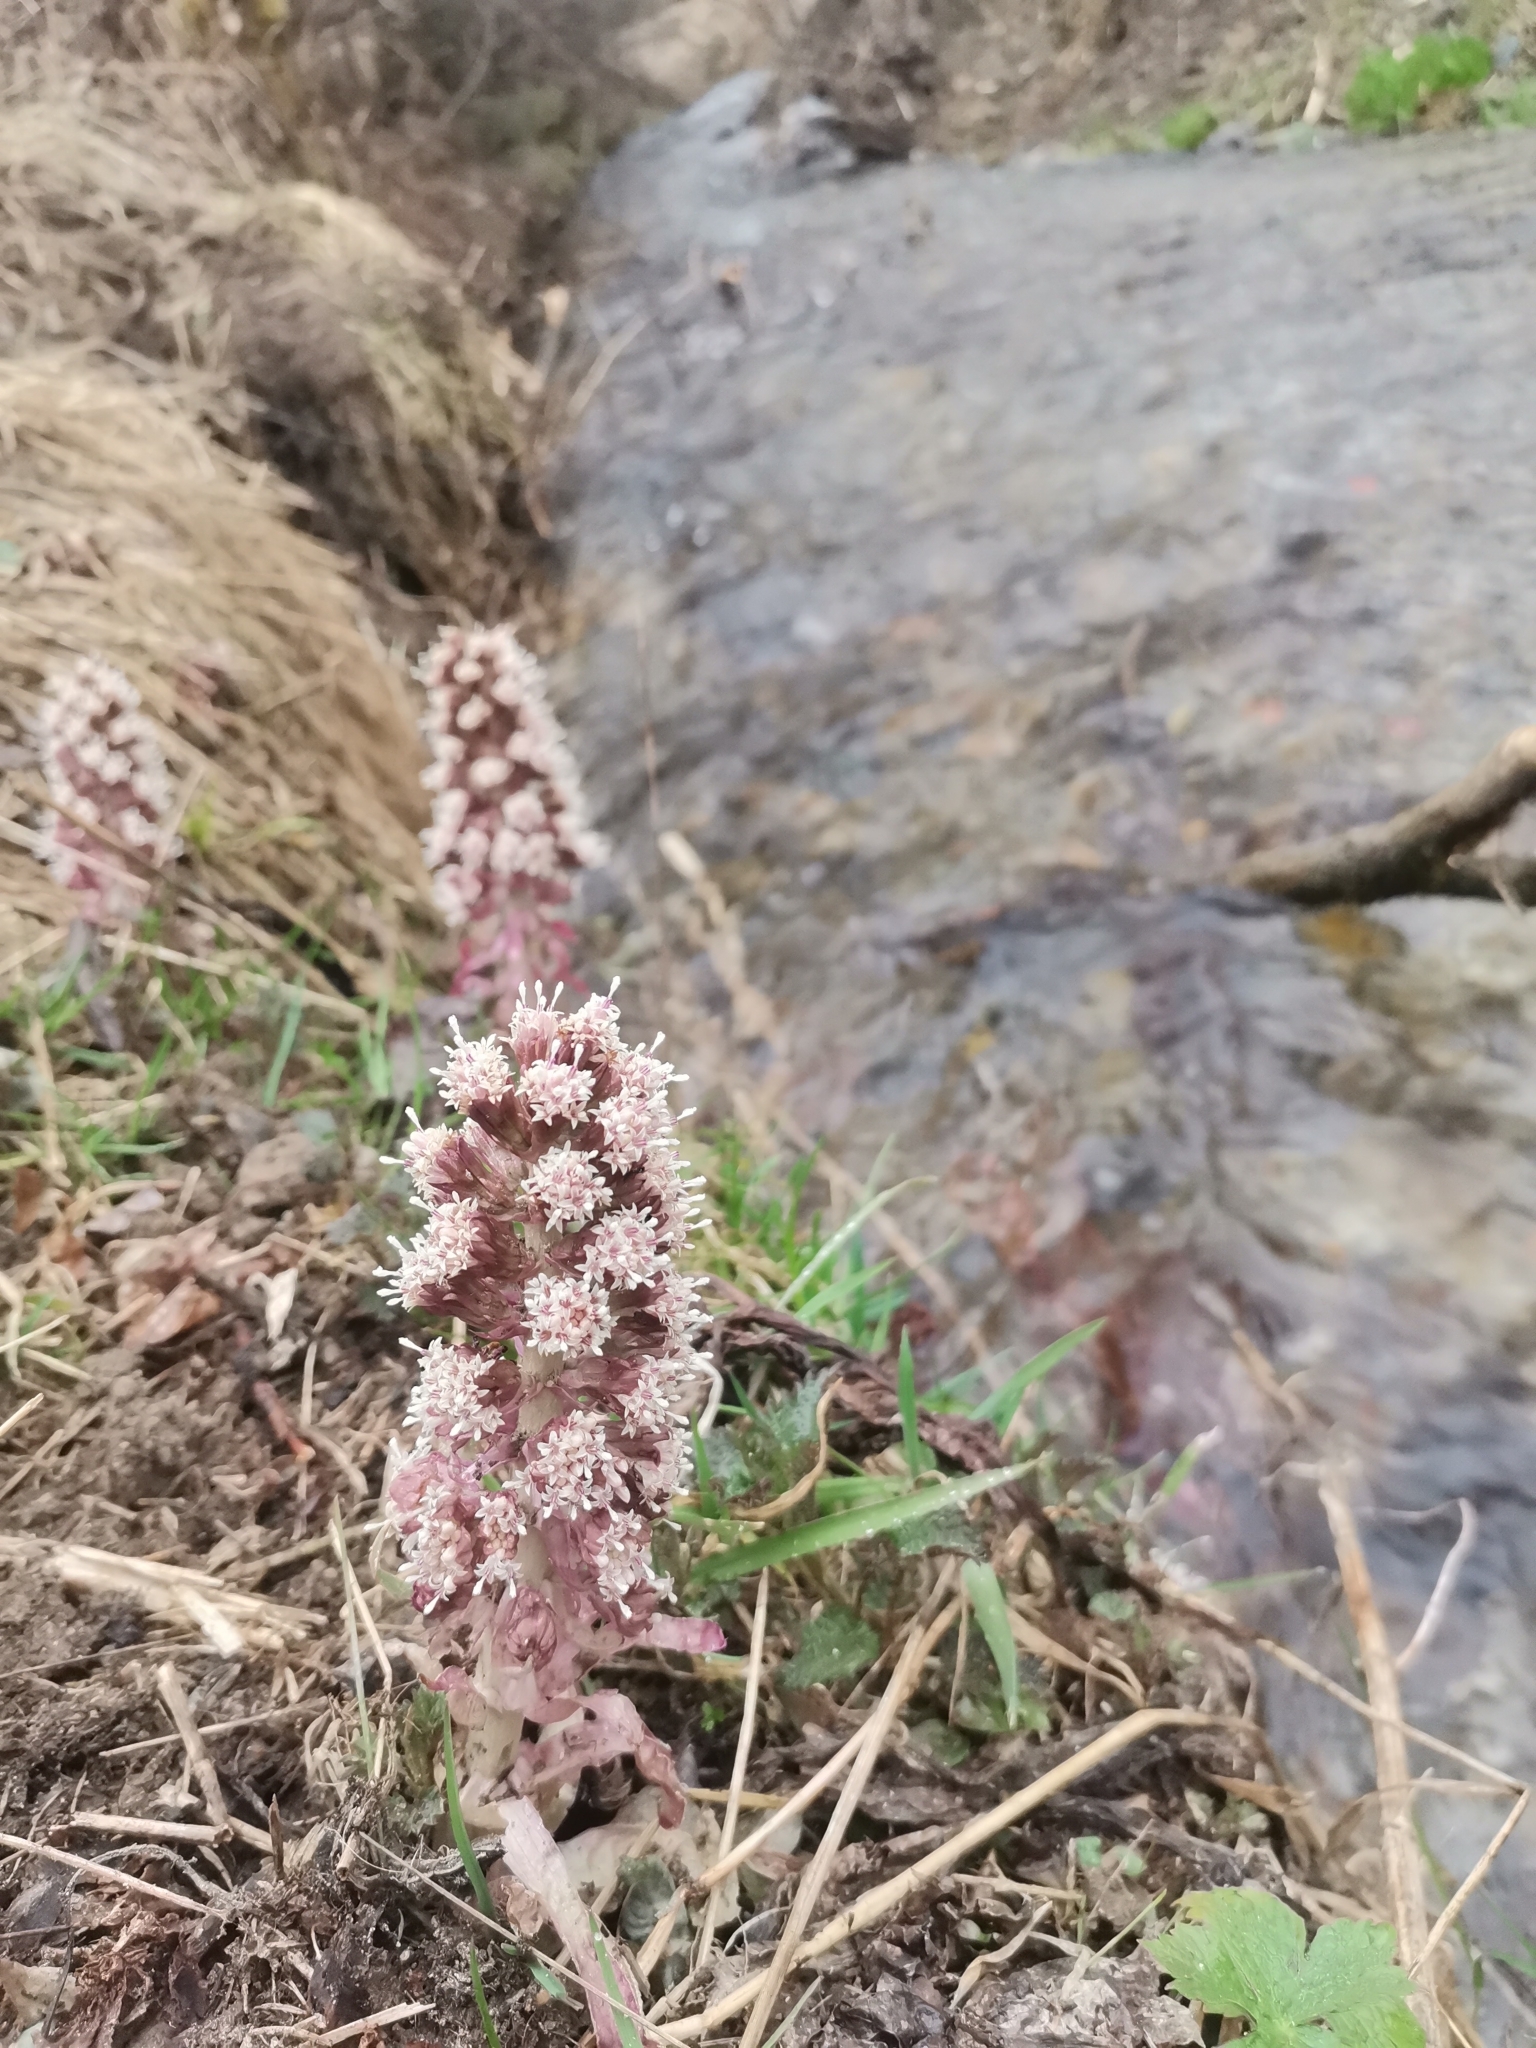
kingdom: Plantae
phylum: Tracheophyta
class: Magnoliopsida
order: Asterales
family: Asteraceae
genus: Petasites
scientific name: Petasites hybridus
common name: Butterbur
